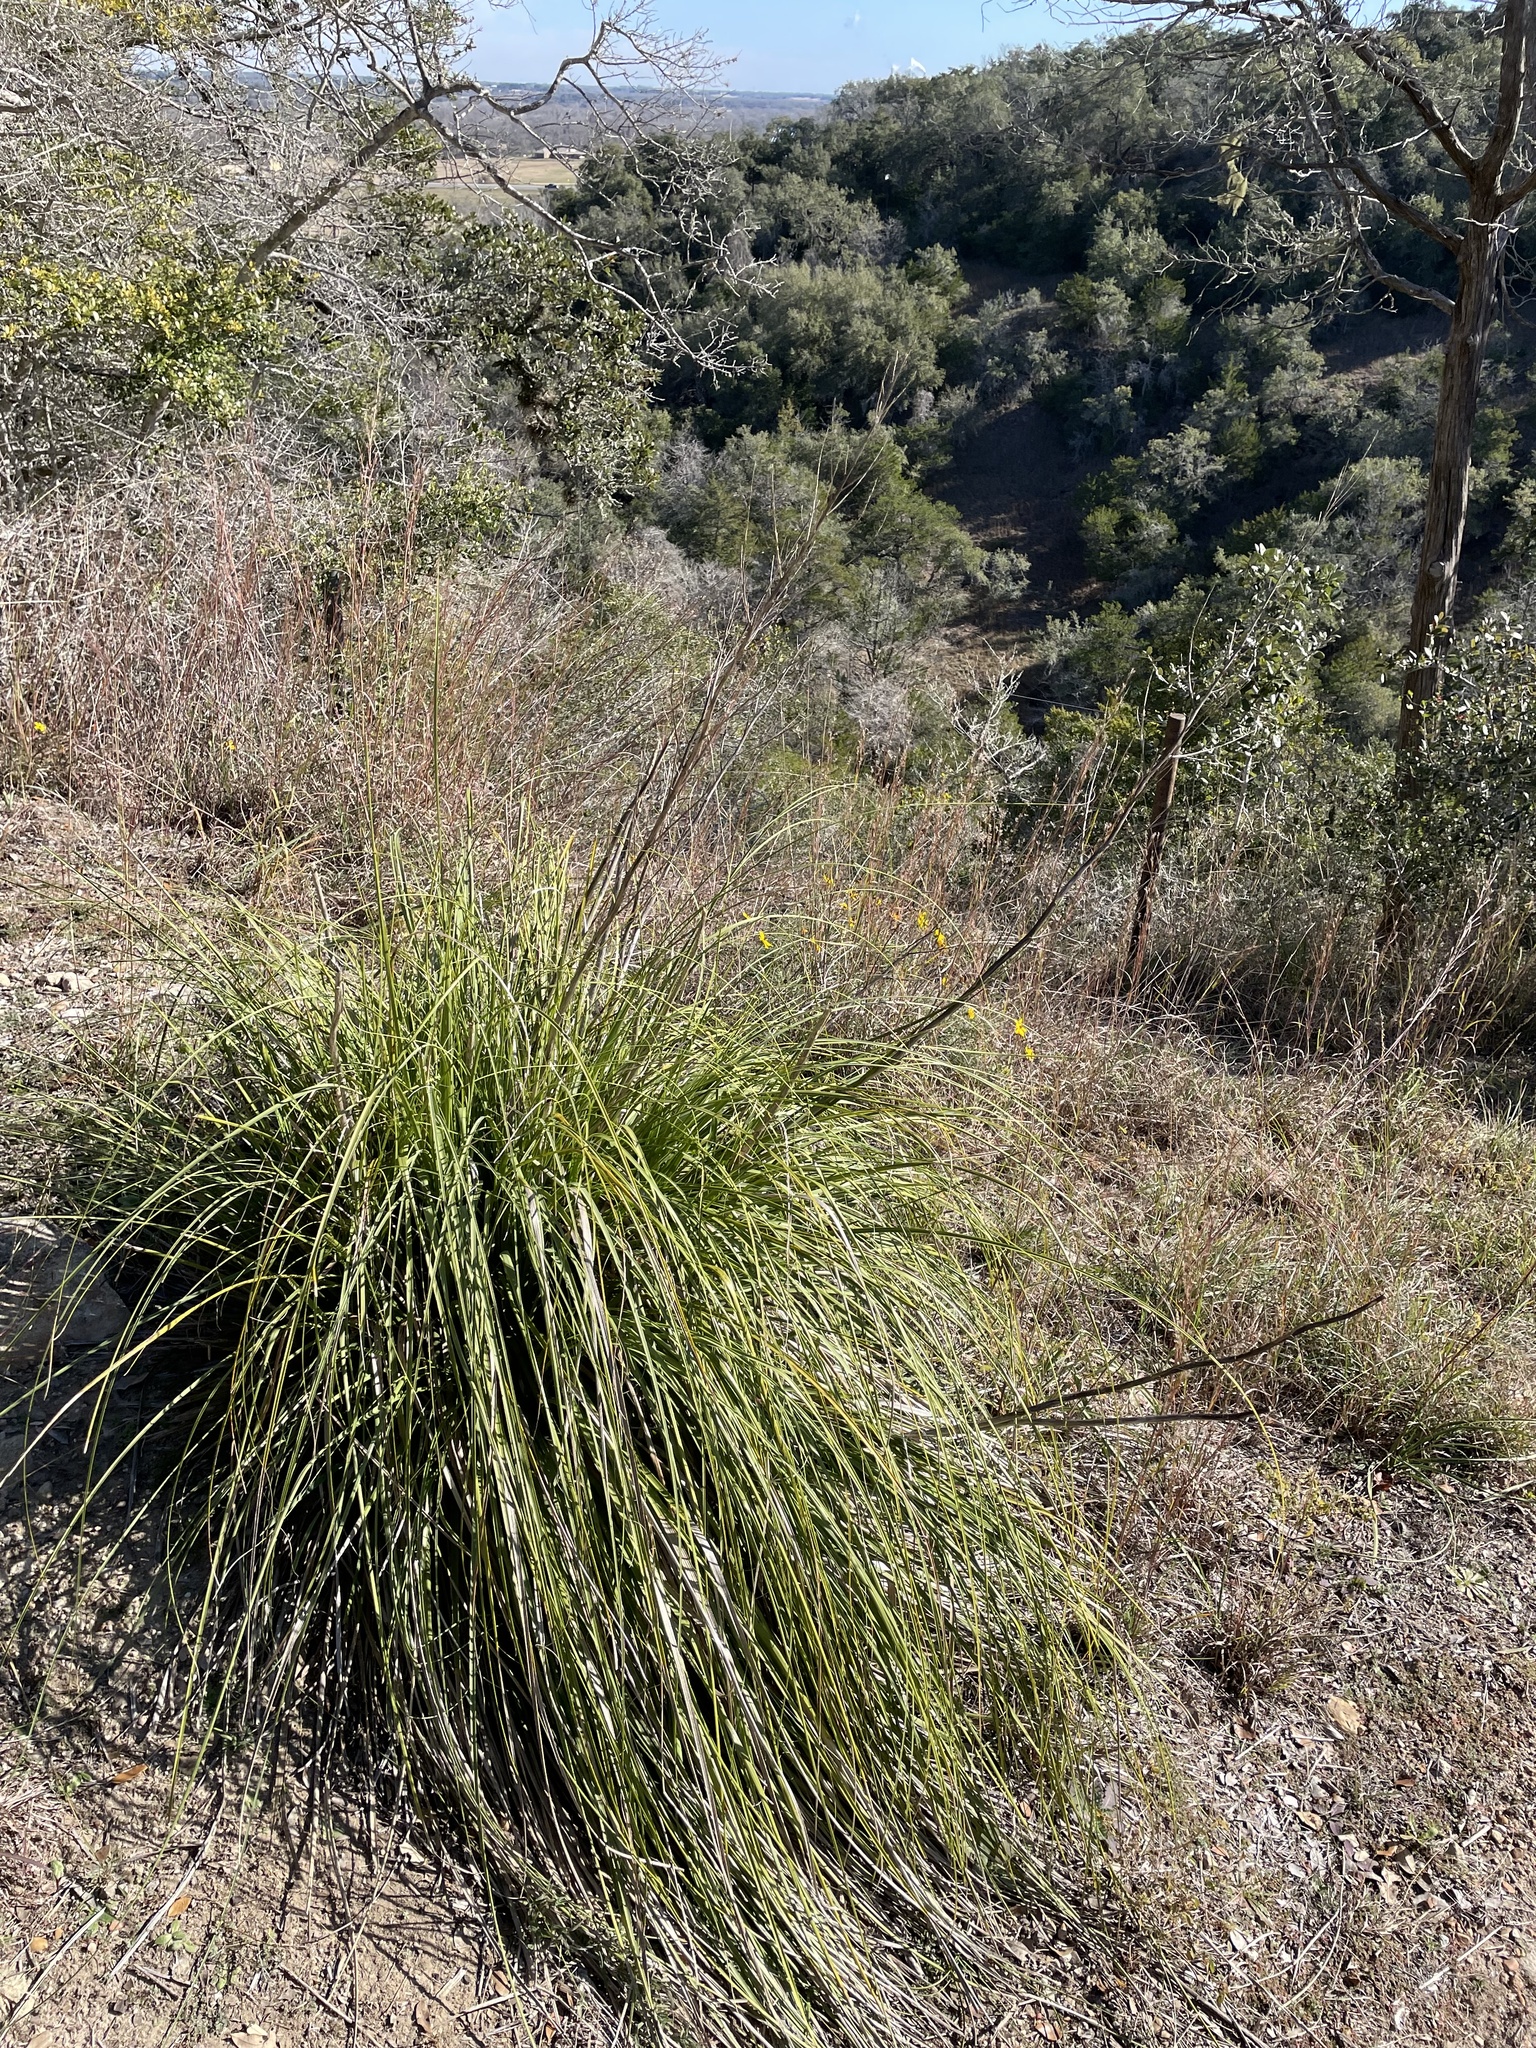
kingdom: Plantae
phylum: Tracheophyta
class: Liliopsida
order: Asparagales
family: Asparagaceae
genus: Nolina
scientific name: Nolina lindheimeriana
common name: Lindheimer's bear-grass
